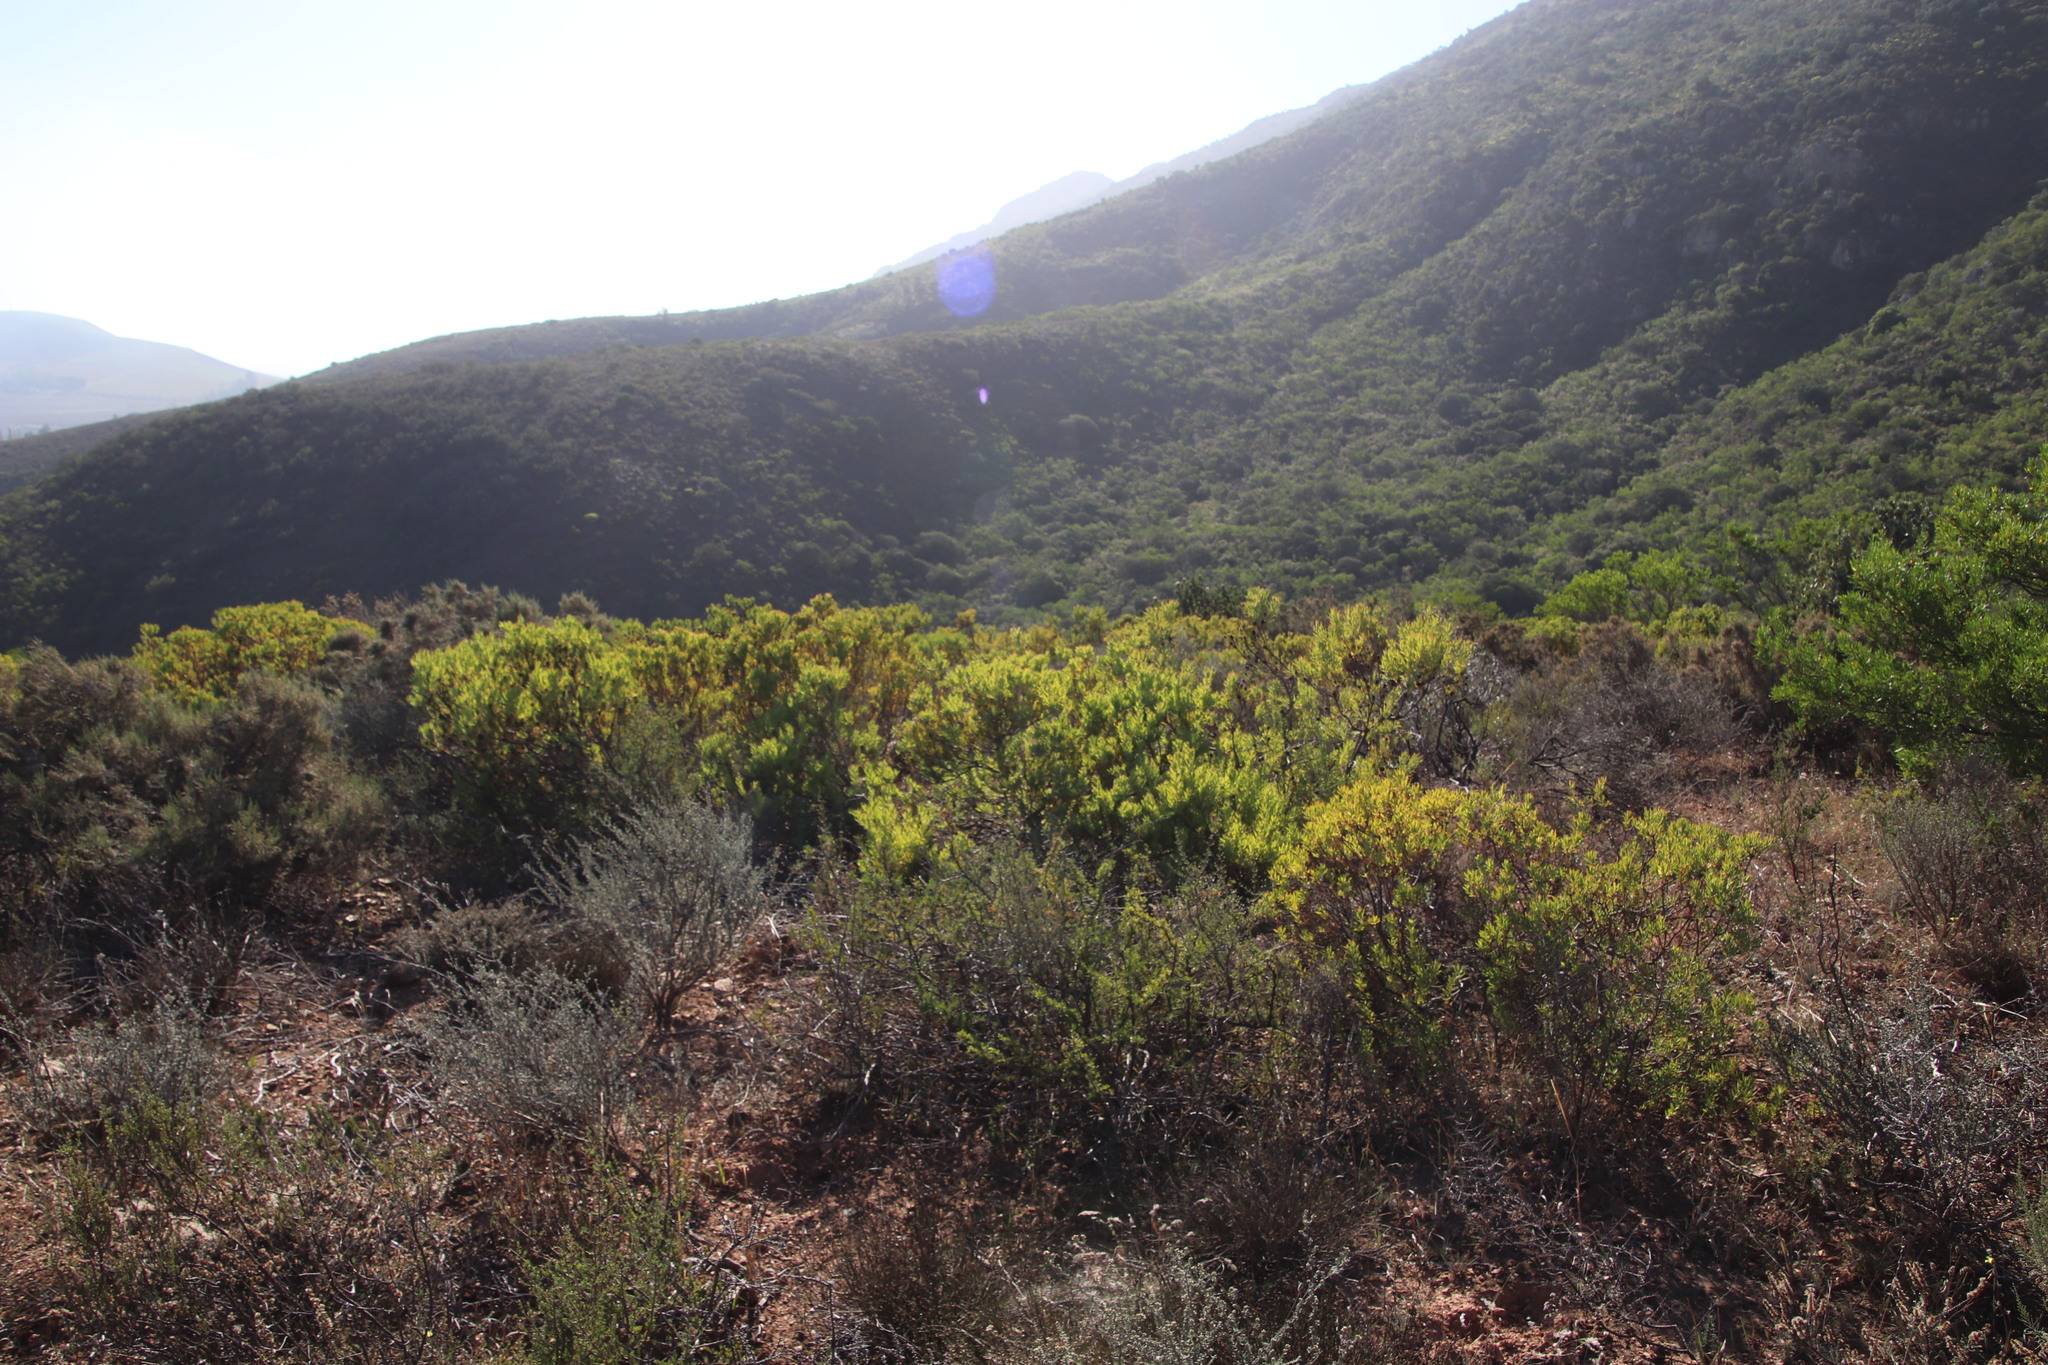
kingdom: Plantae
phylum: Tracheophyta
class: Magnoliopsida
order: Proteales
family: Proteaceae
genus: Leucadendron
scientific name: Leucadendron lanigerum
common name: Shale conebush
